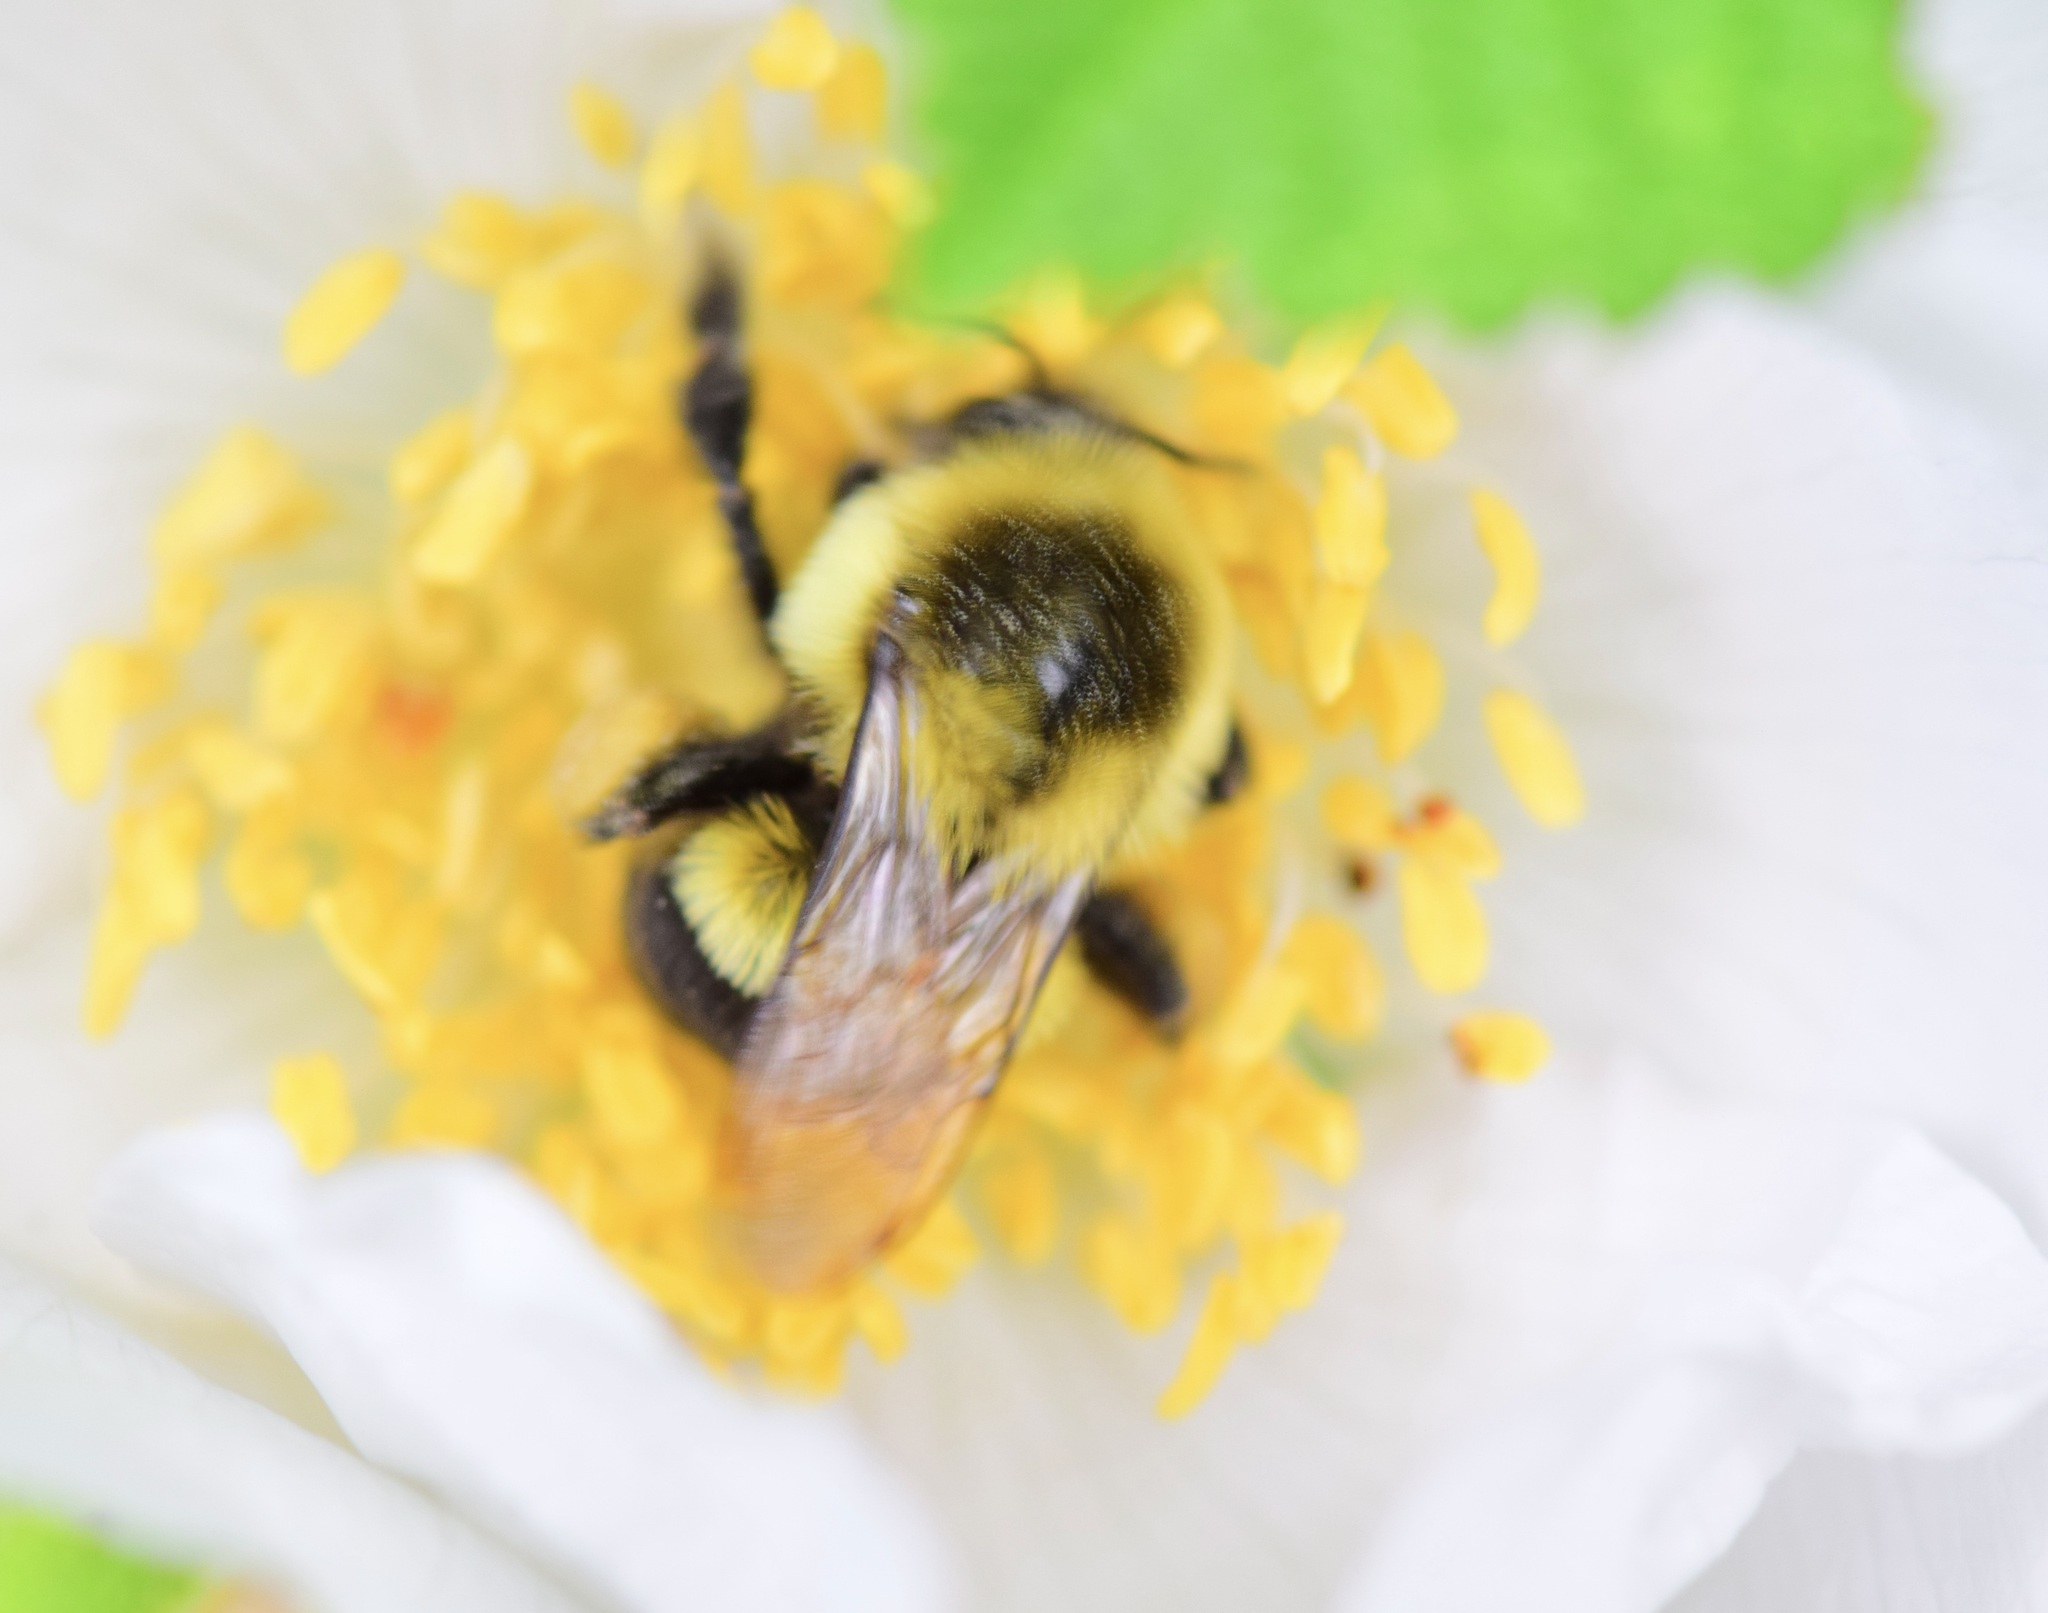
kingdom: Animalia
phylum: Arthropoda
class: Insecta
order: Hymenoptera
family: Apidae
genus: Bombus
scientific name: Bombus impatiens
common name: Common eastern bumble bee
